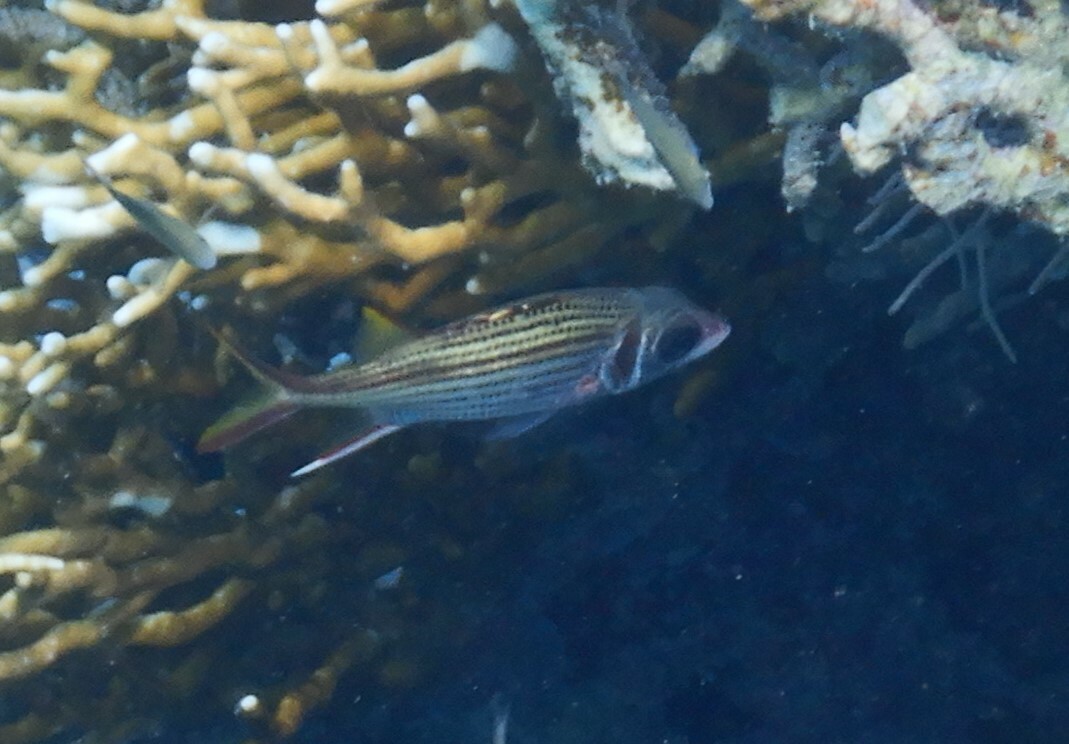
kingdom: Animalia
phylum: Chordata
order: Beryciformes
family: Holocentridae
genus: Neoniphon
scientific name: Neoniphon sammara
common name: Sammara squirrelfish
